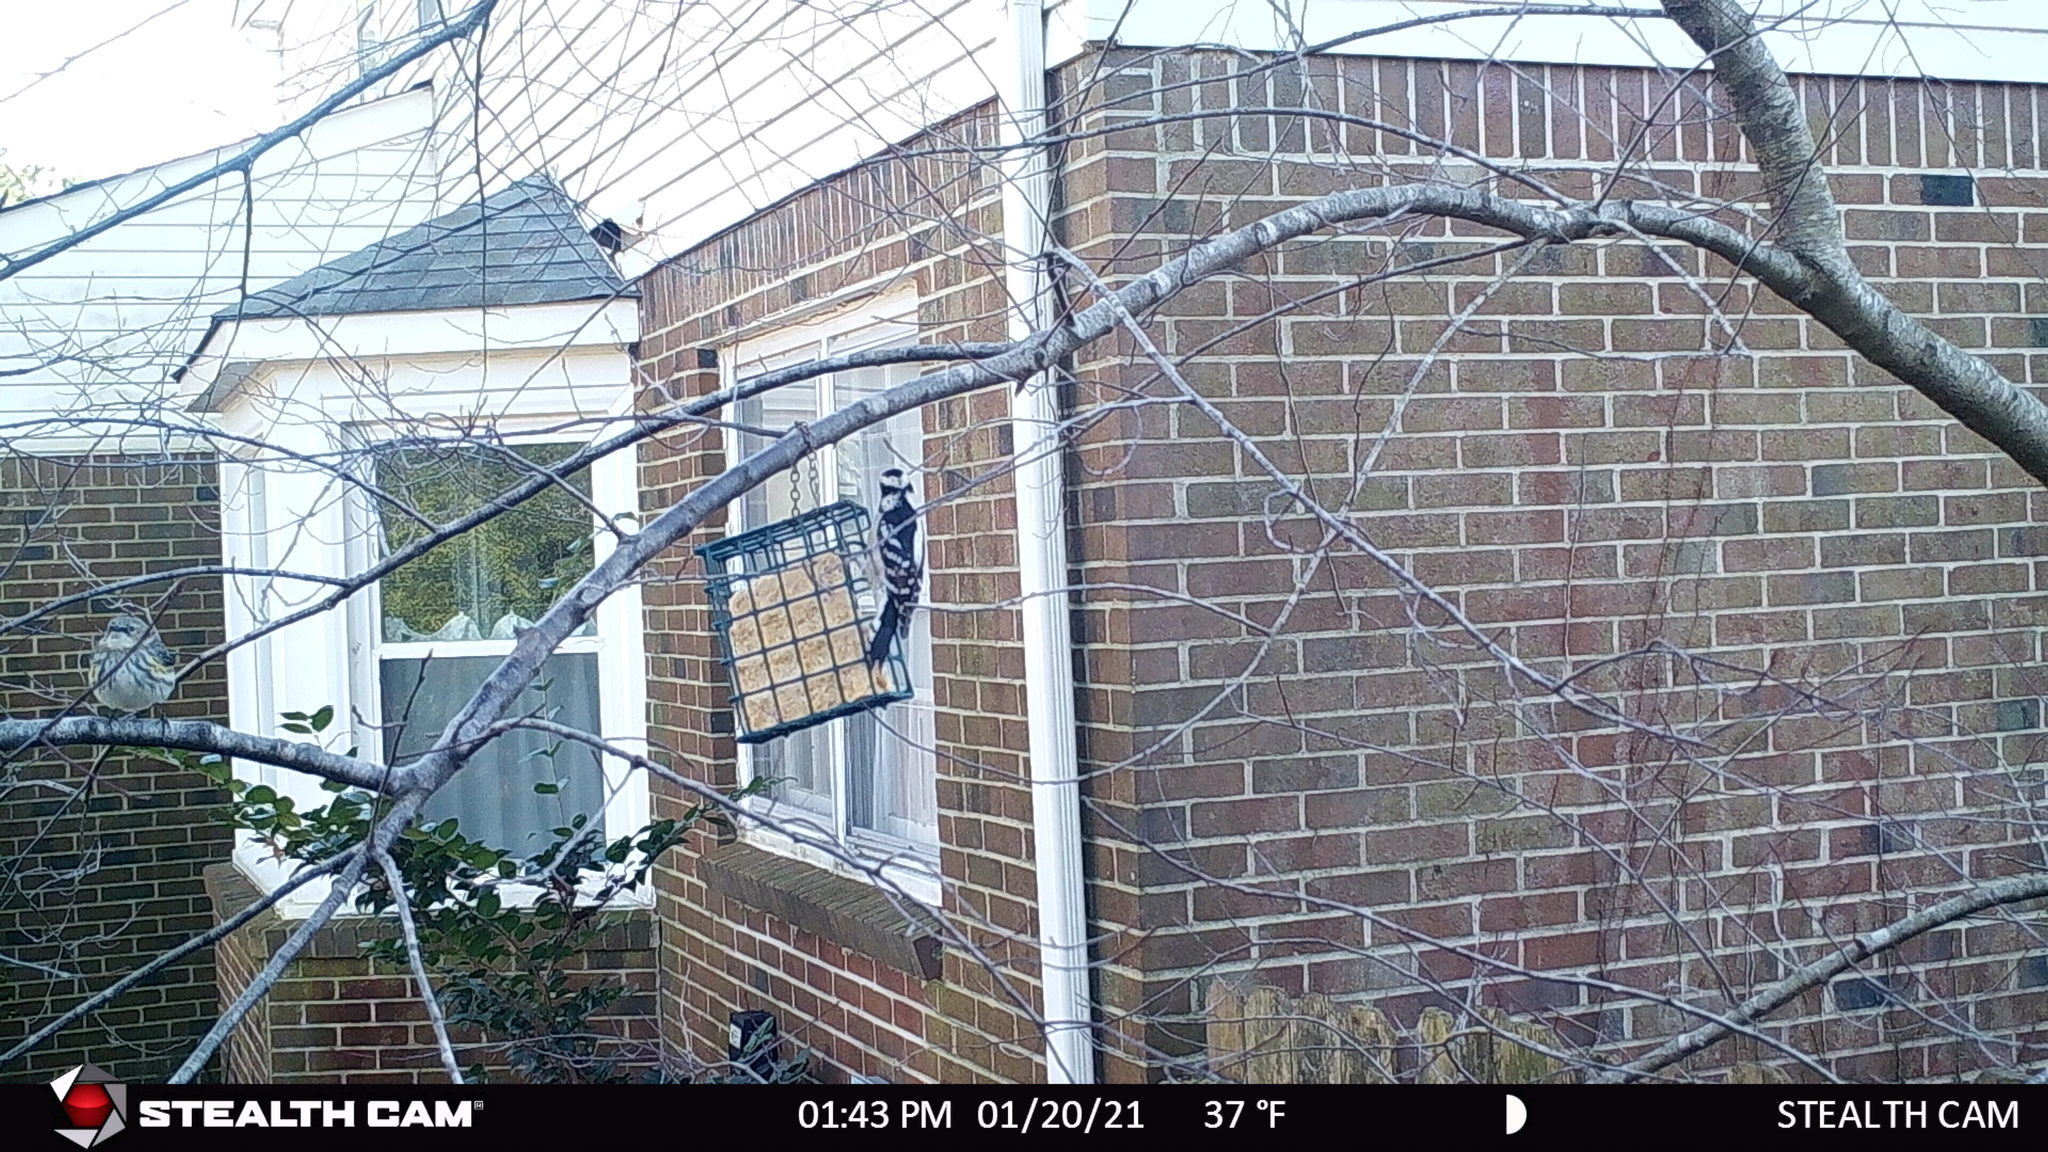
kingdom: Animalia
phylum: Chordata
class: Aves
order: Piciformes
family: Picidae
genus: Dryobates
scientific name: Dryobates pubescens
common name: Downy woodpecker
